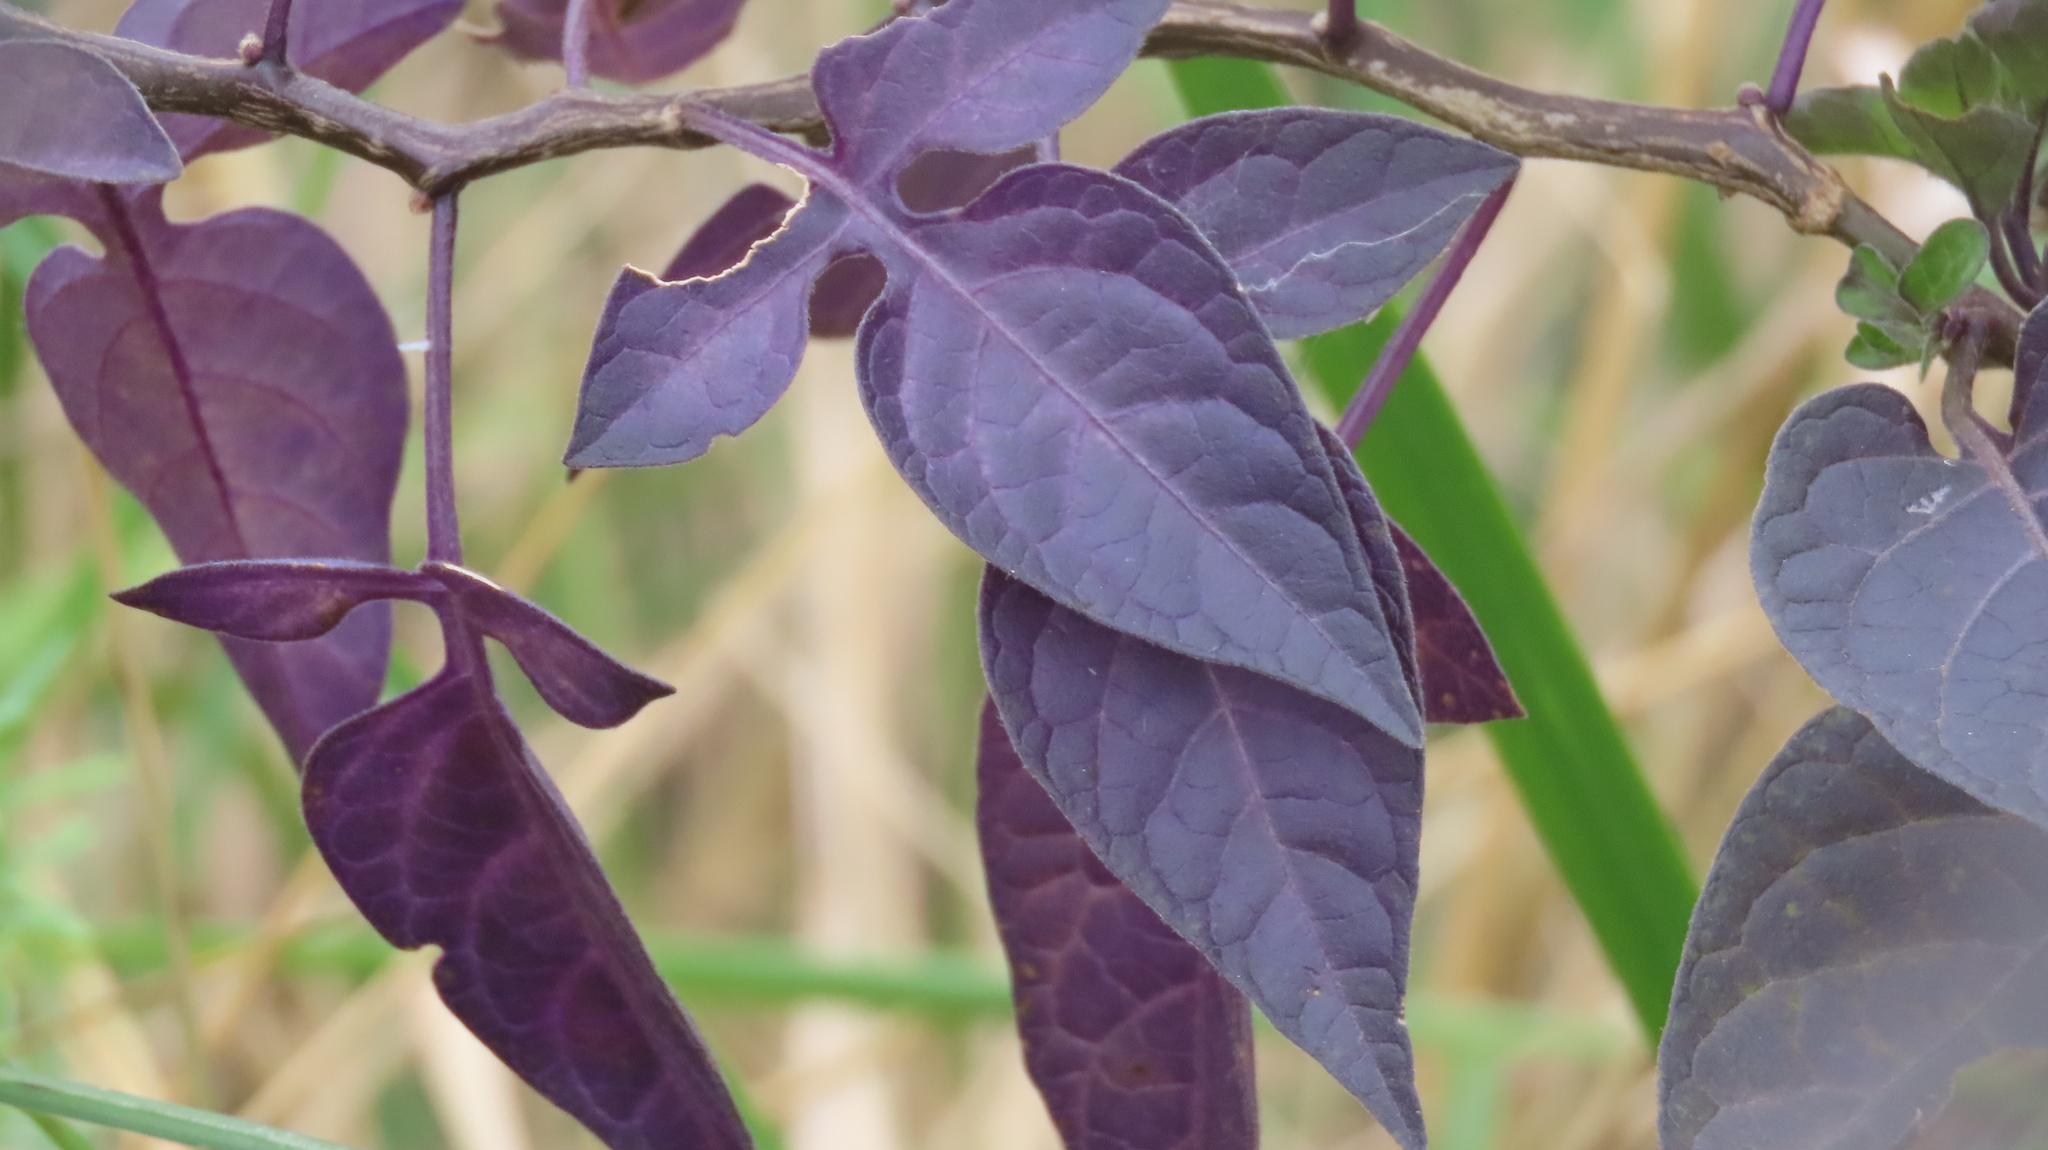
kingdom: Plantae
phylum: Tracheophyta
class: Magnoliopsida
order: Solanales
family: Solanaceae
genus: Solanum
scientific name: Solanum dulcamara
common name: Climbing nightshade
